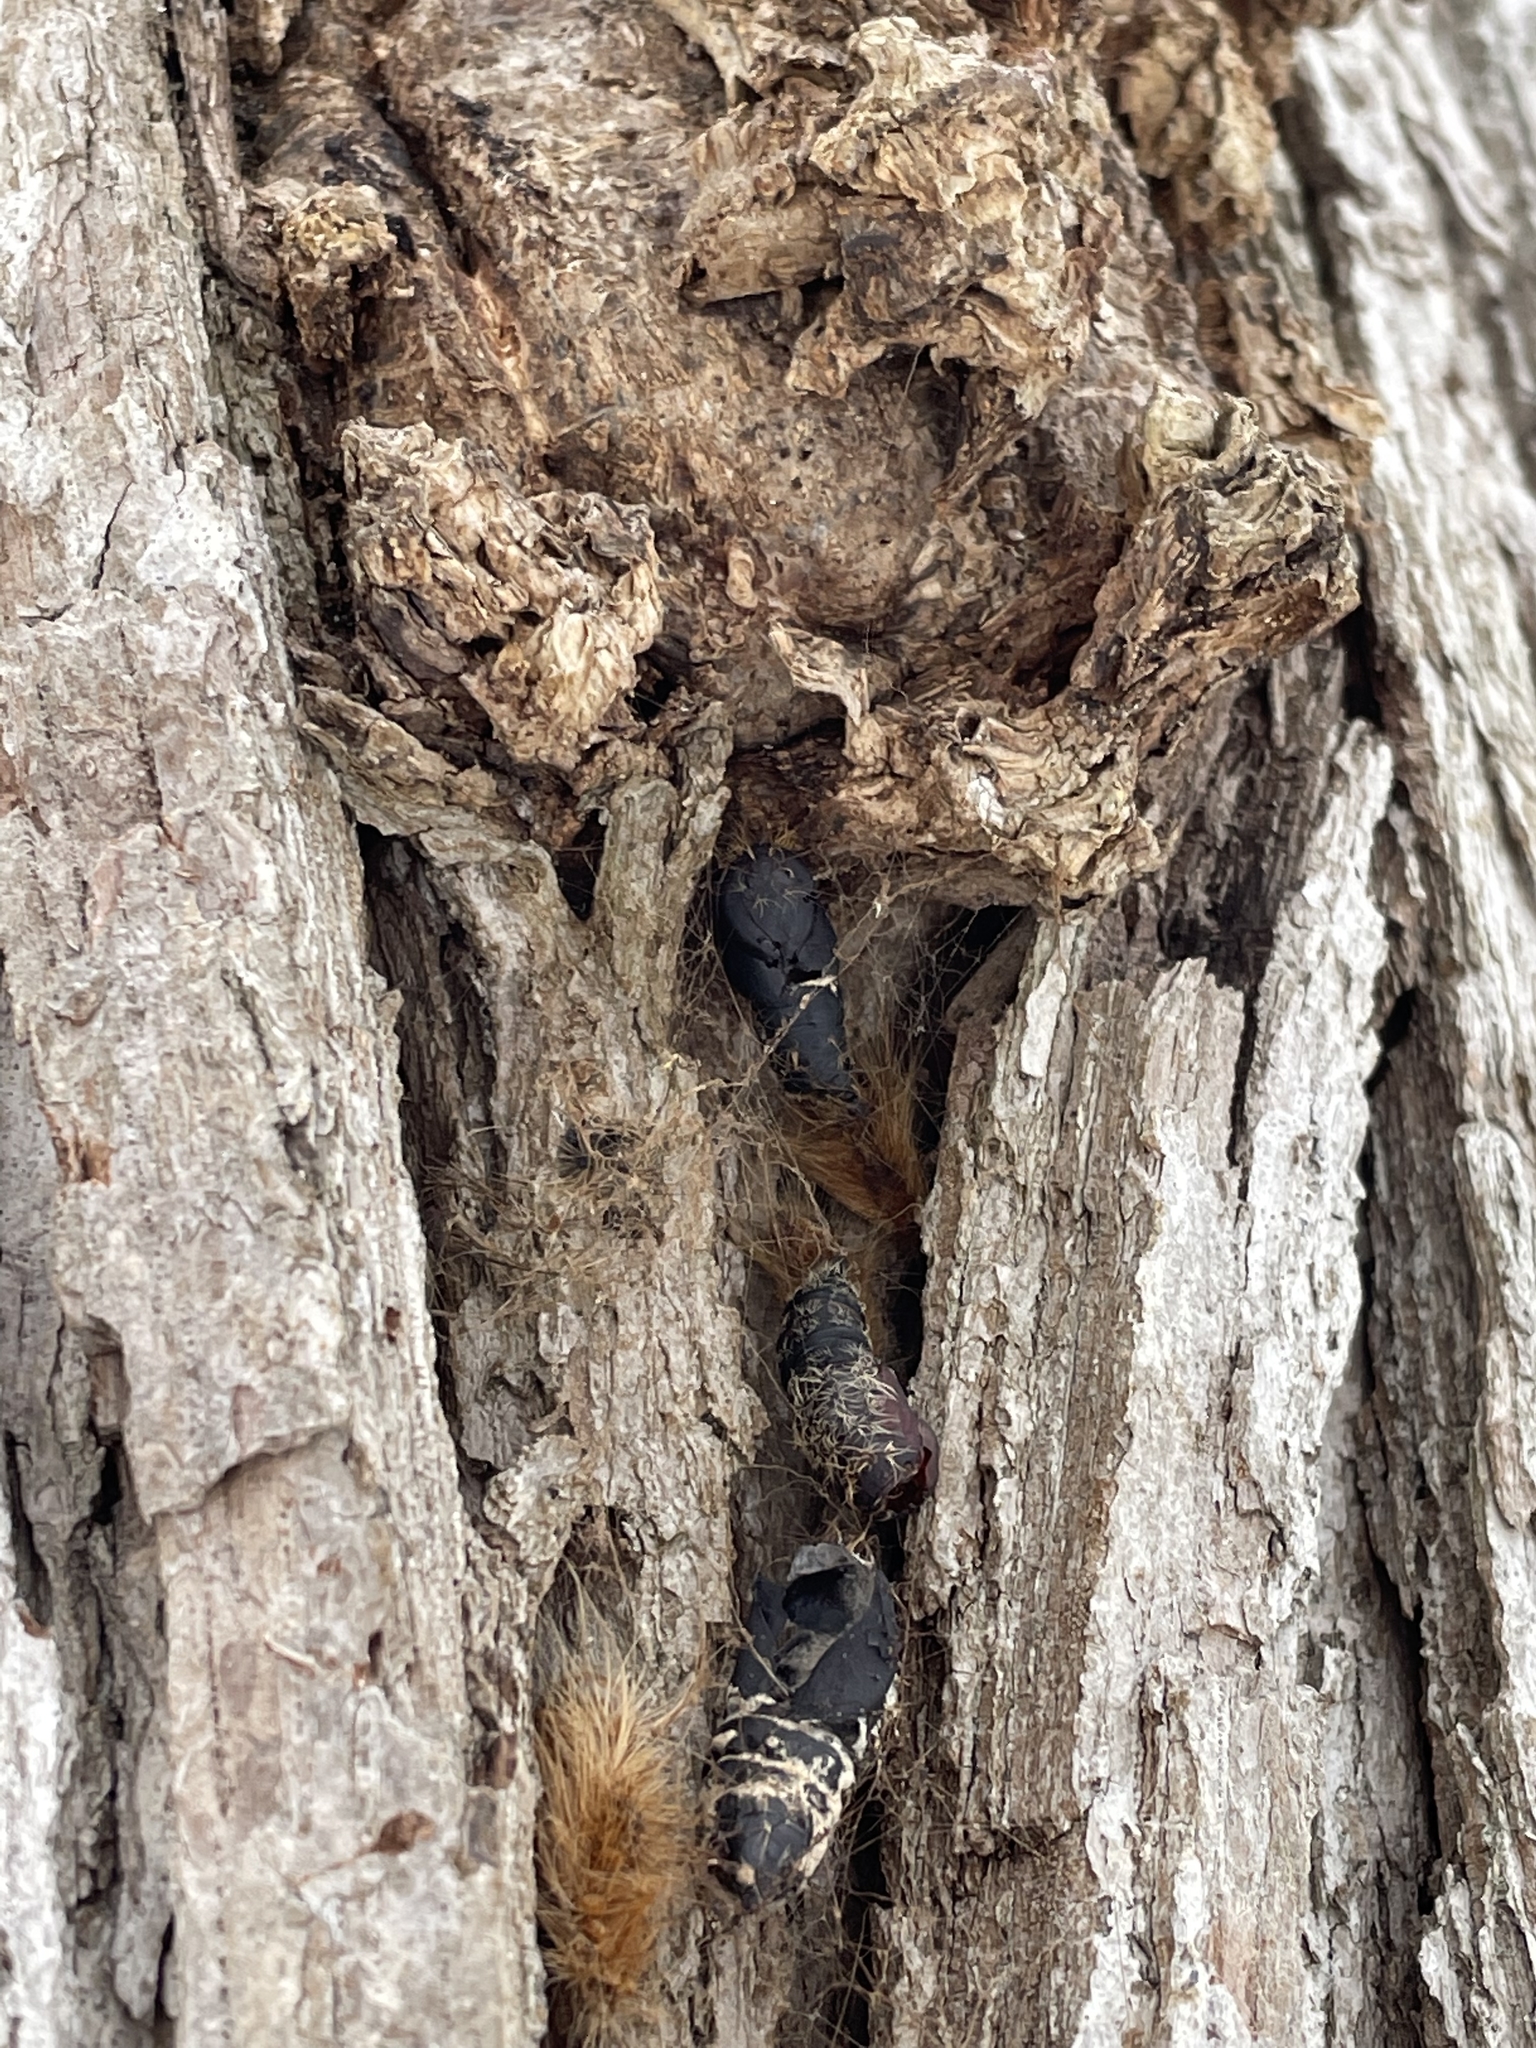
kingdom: Animalia
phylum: Arthropoda
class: Insecta
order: Lepidoptera
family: Erebidae
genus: Lymantria
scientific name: Lymantria dispar
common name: Gypsy moth
